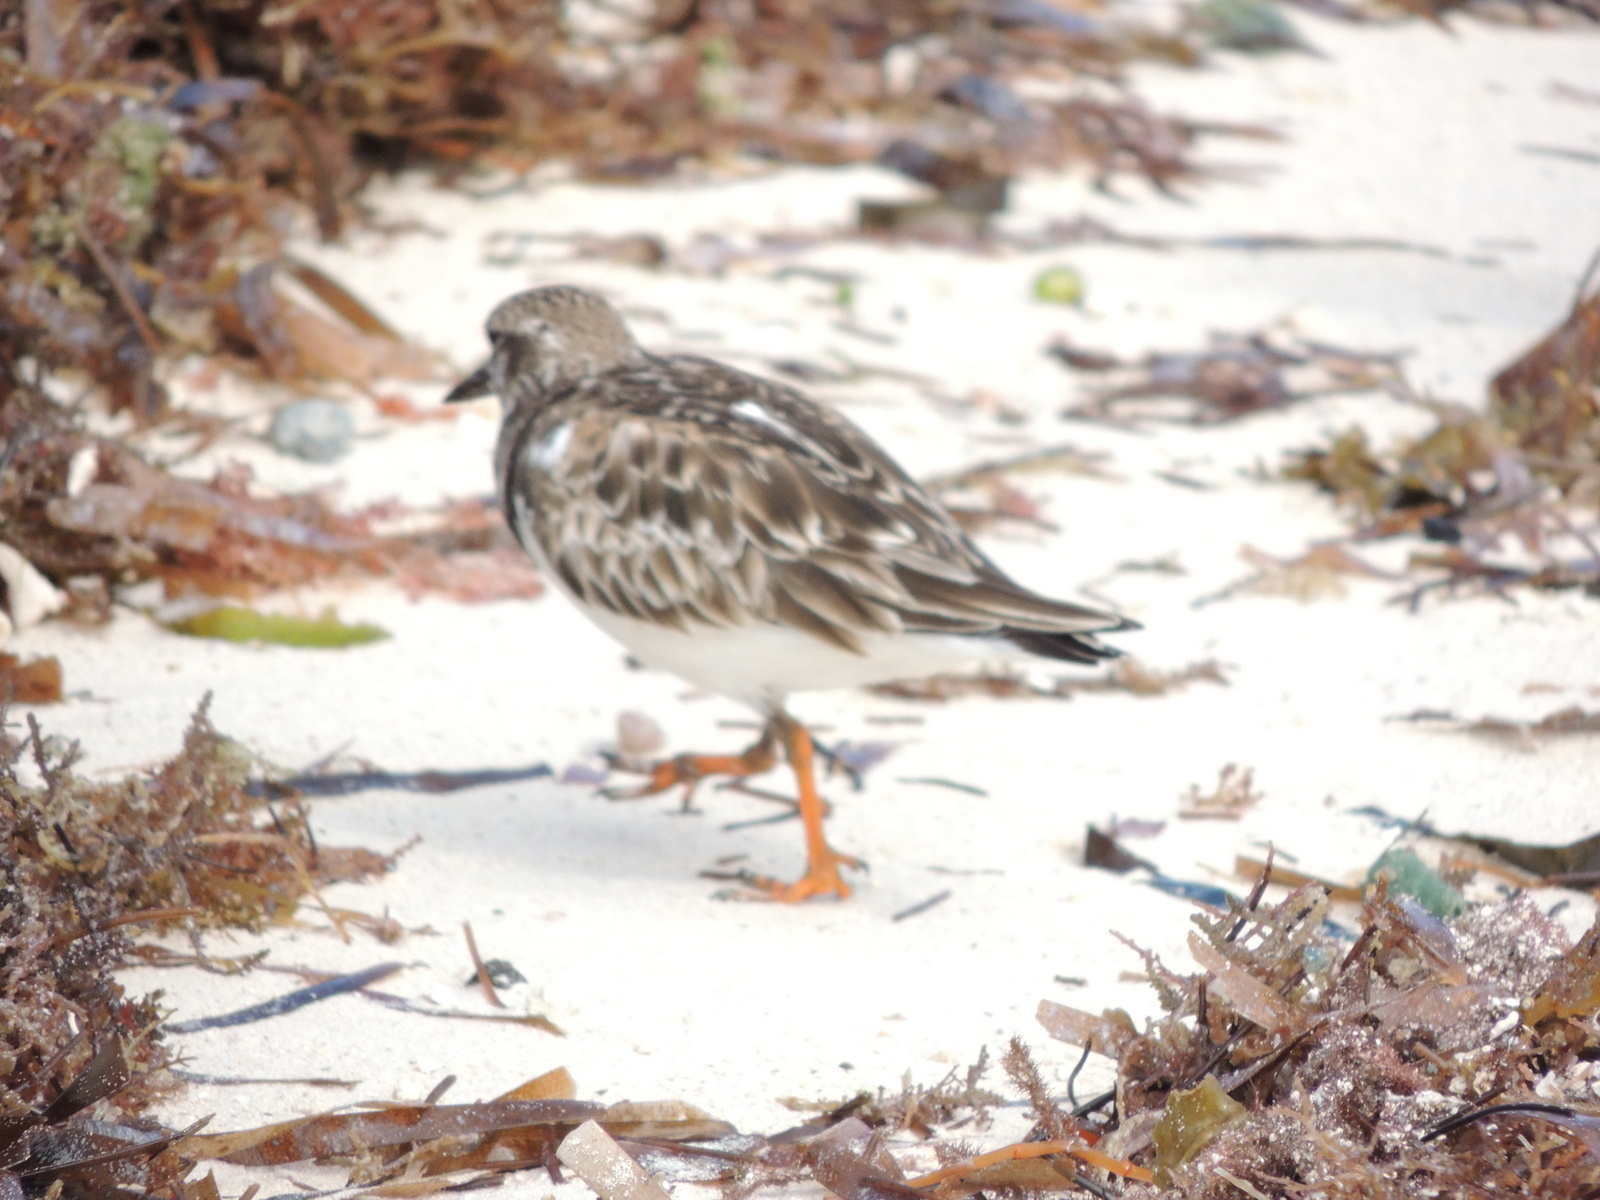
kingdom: Animalia
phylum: Chordata
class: Aves
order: Charadriiformes
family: Scolopacidae
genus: Arenaria
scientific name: Arenaria interpres
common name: Ruddy turnstone
